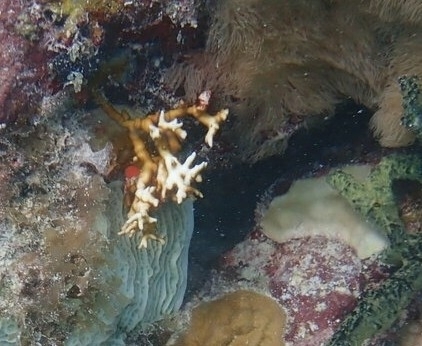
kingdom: Animalia
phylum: Cnidaria
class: Hydrozoa
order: Anthoathecata
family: Milleporidae
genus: Millepora
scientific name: Millepora alcicornis
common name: Branching fire coral
